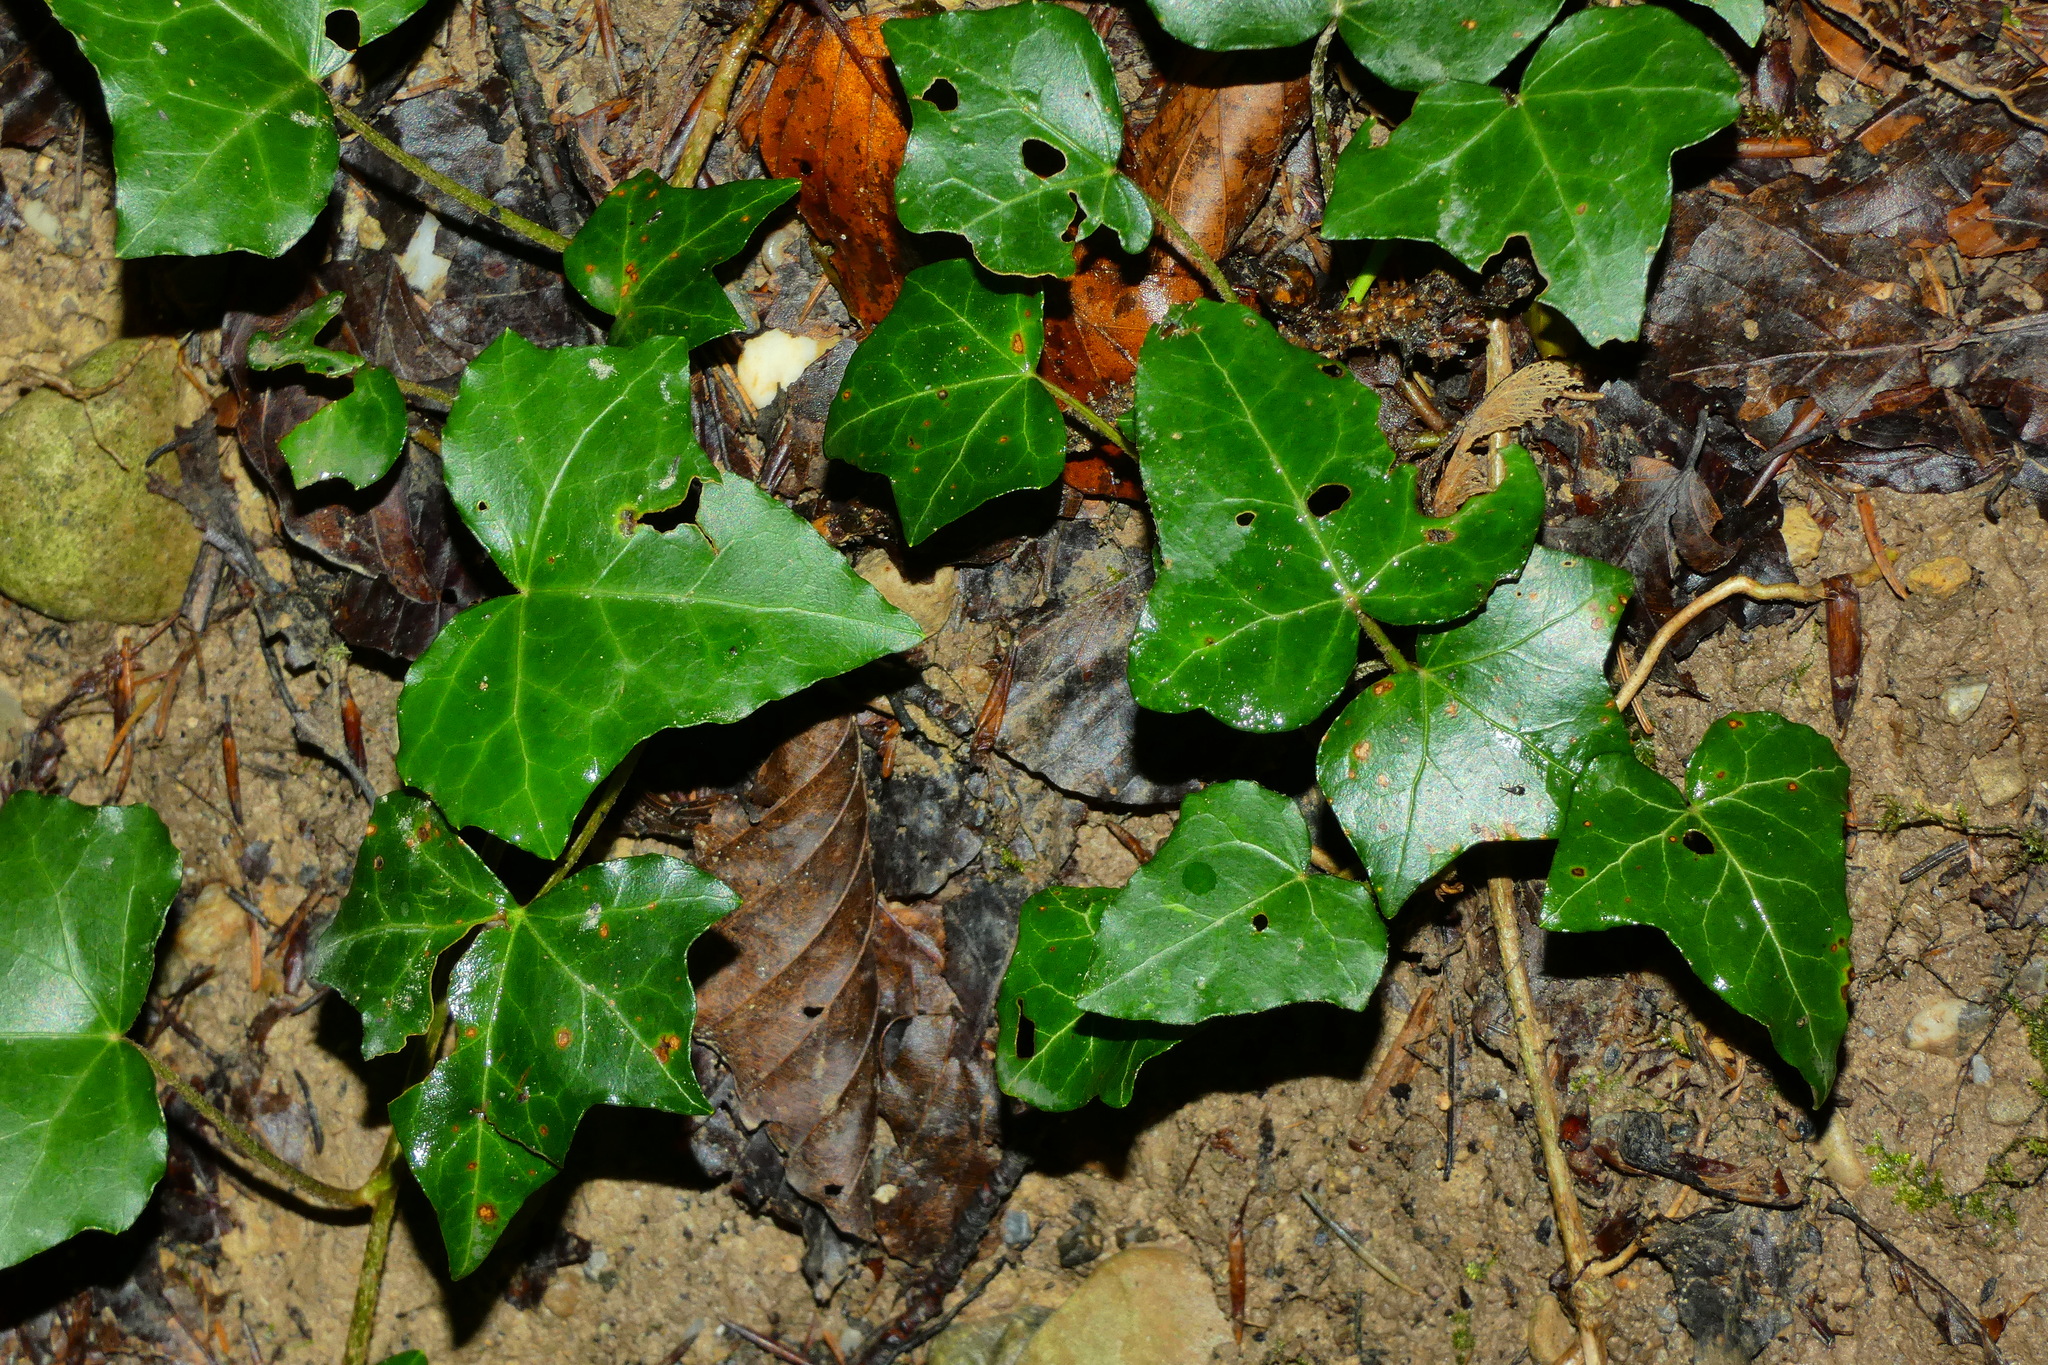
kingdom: Plantae
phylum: Tracheophyta
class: Magnoliopsida
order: Apiales
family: Araliaceae
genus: Hedera
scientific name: Hedera helix
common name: Ivy
